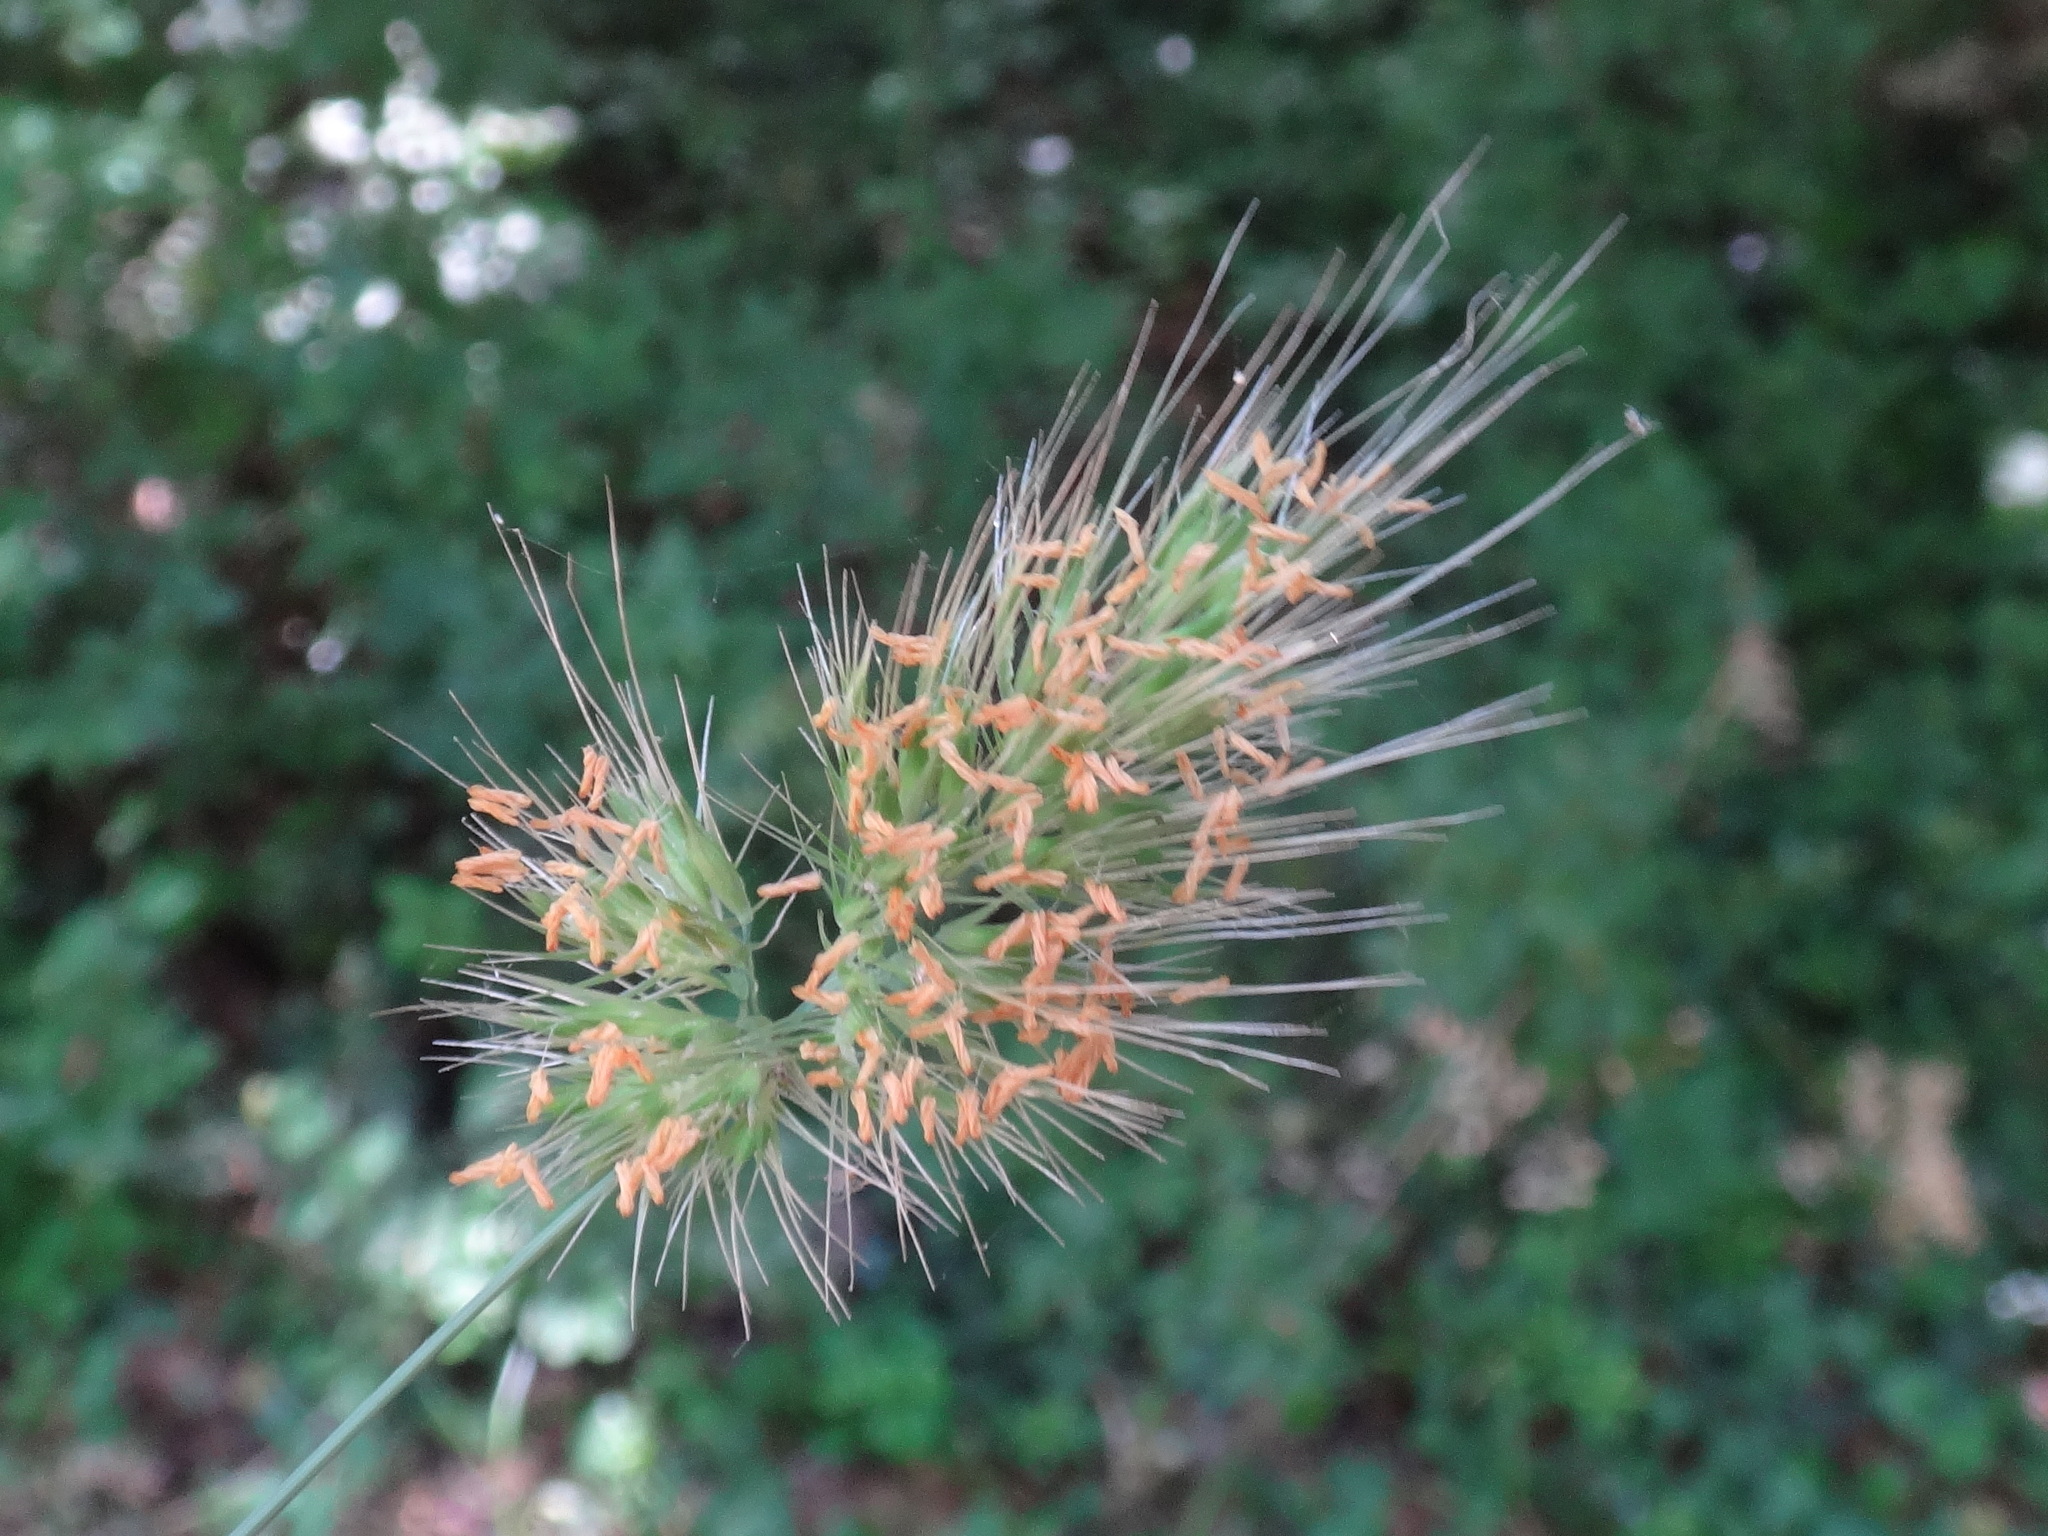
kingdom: Plantae
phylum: Tracheophyta
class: Liliopsida
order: Poales
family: Poaceae
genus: Cynosurus
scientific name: Cynosurus echinatus
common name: Rough dog's-tail
